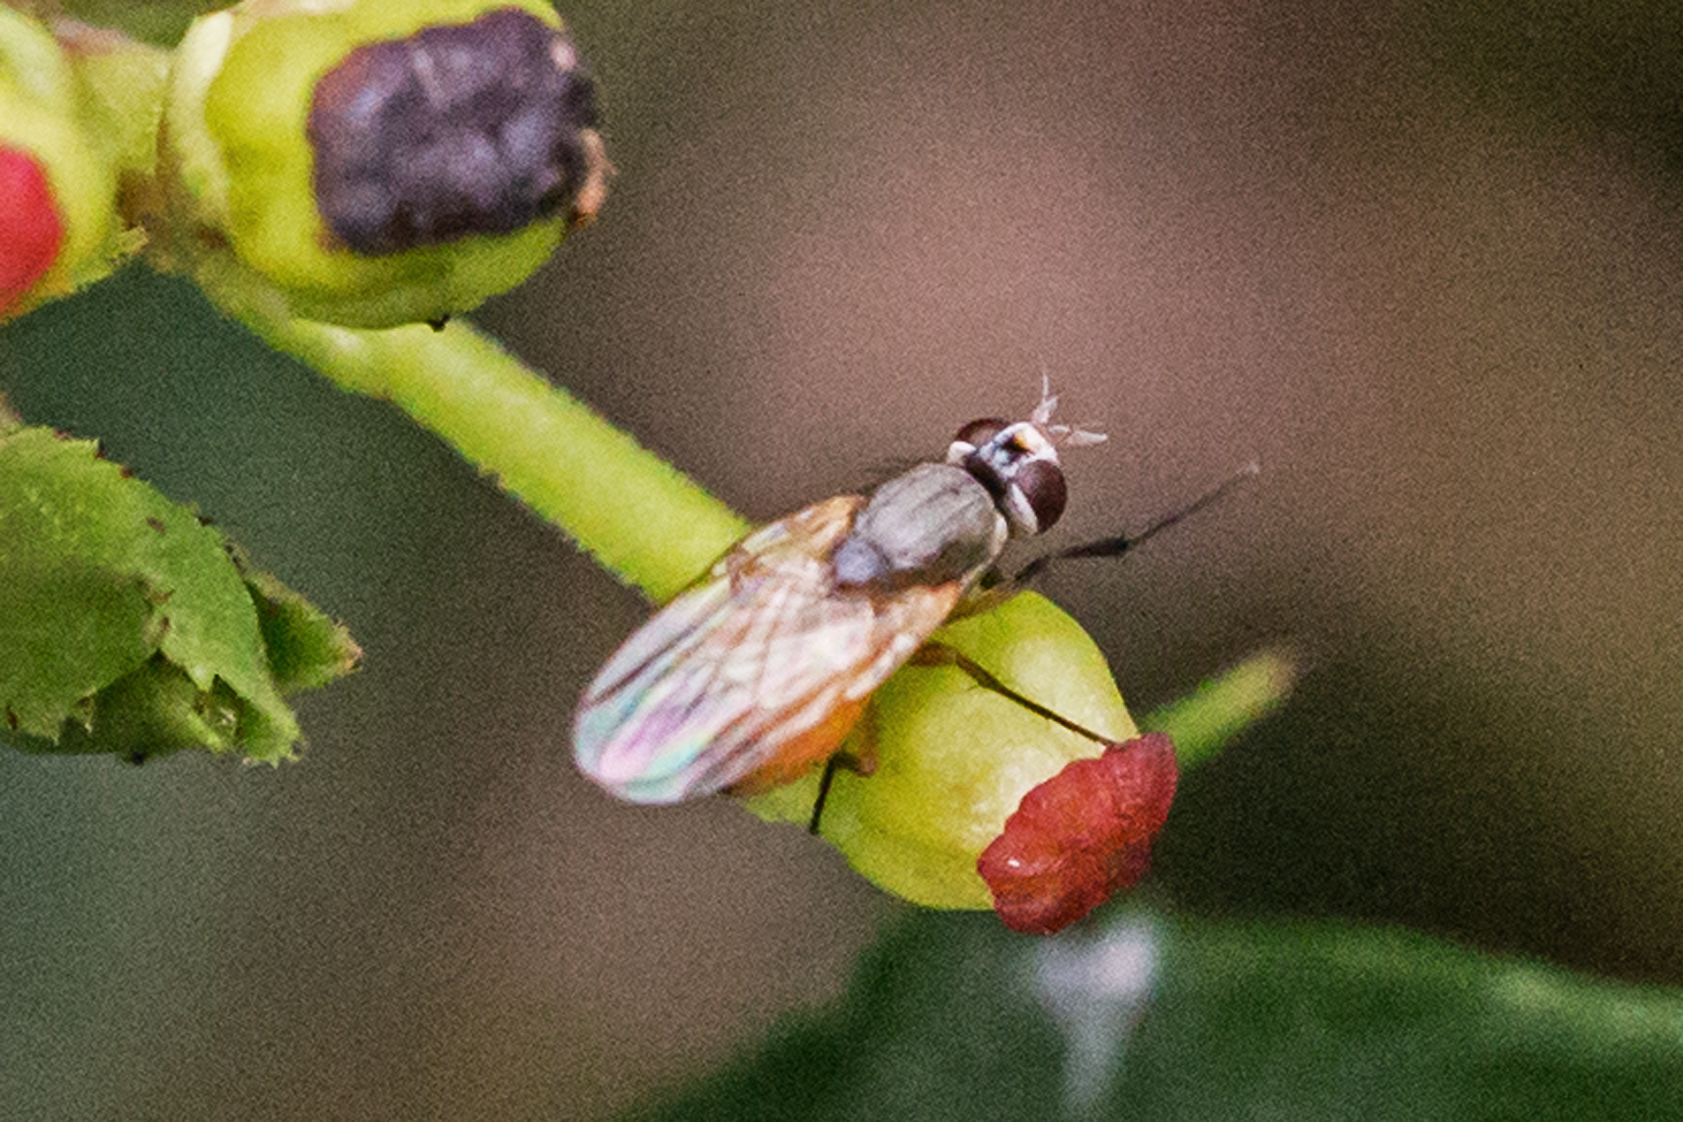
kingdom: Animalia
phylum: Arthropoda
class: Insecta
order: Diptera
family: Muscidae
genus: Atherigona
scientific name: Atherigona reversura
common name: Bermudagrass stem maggot
